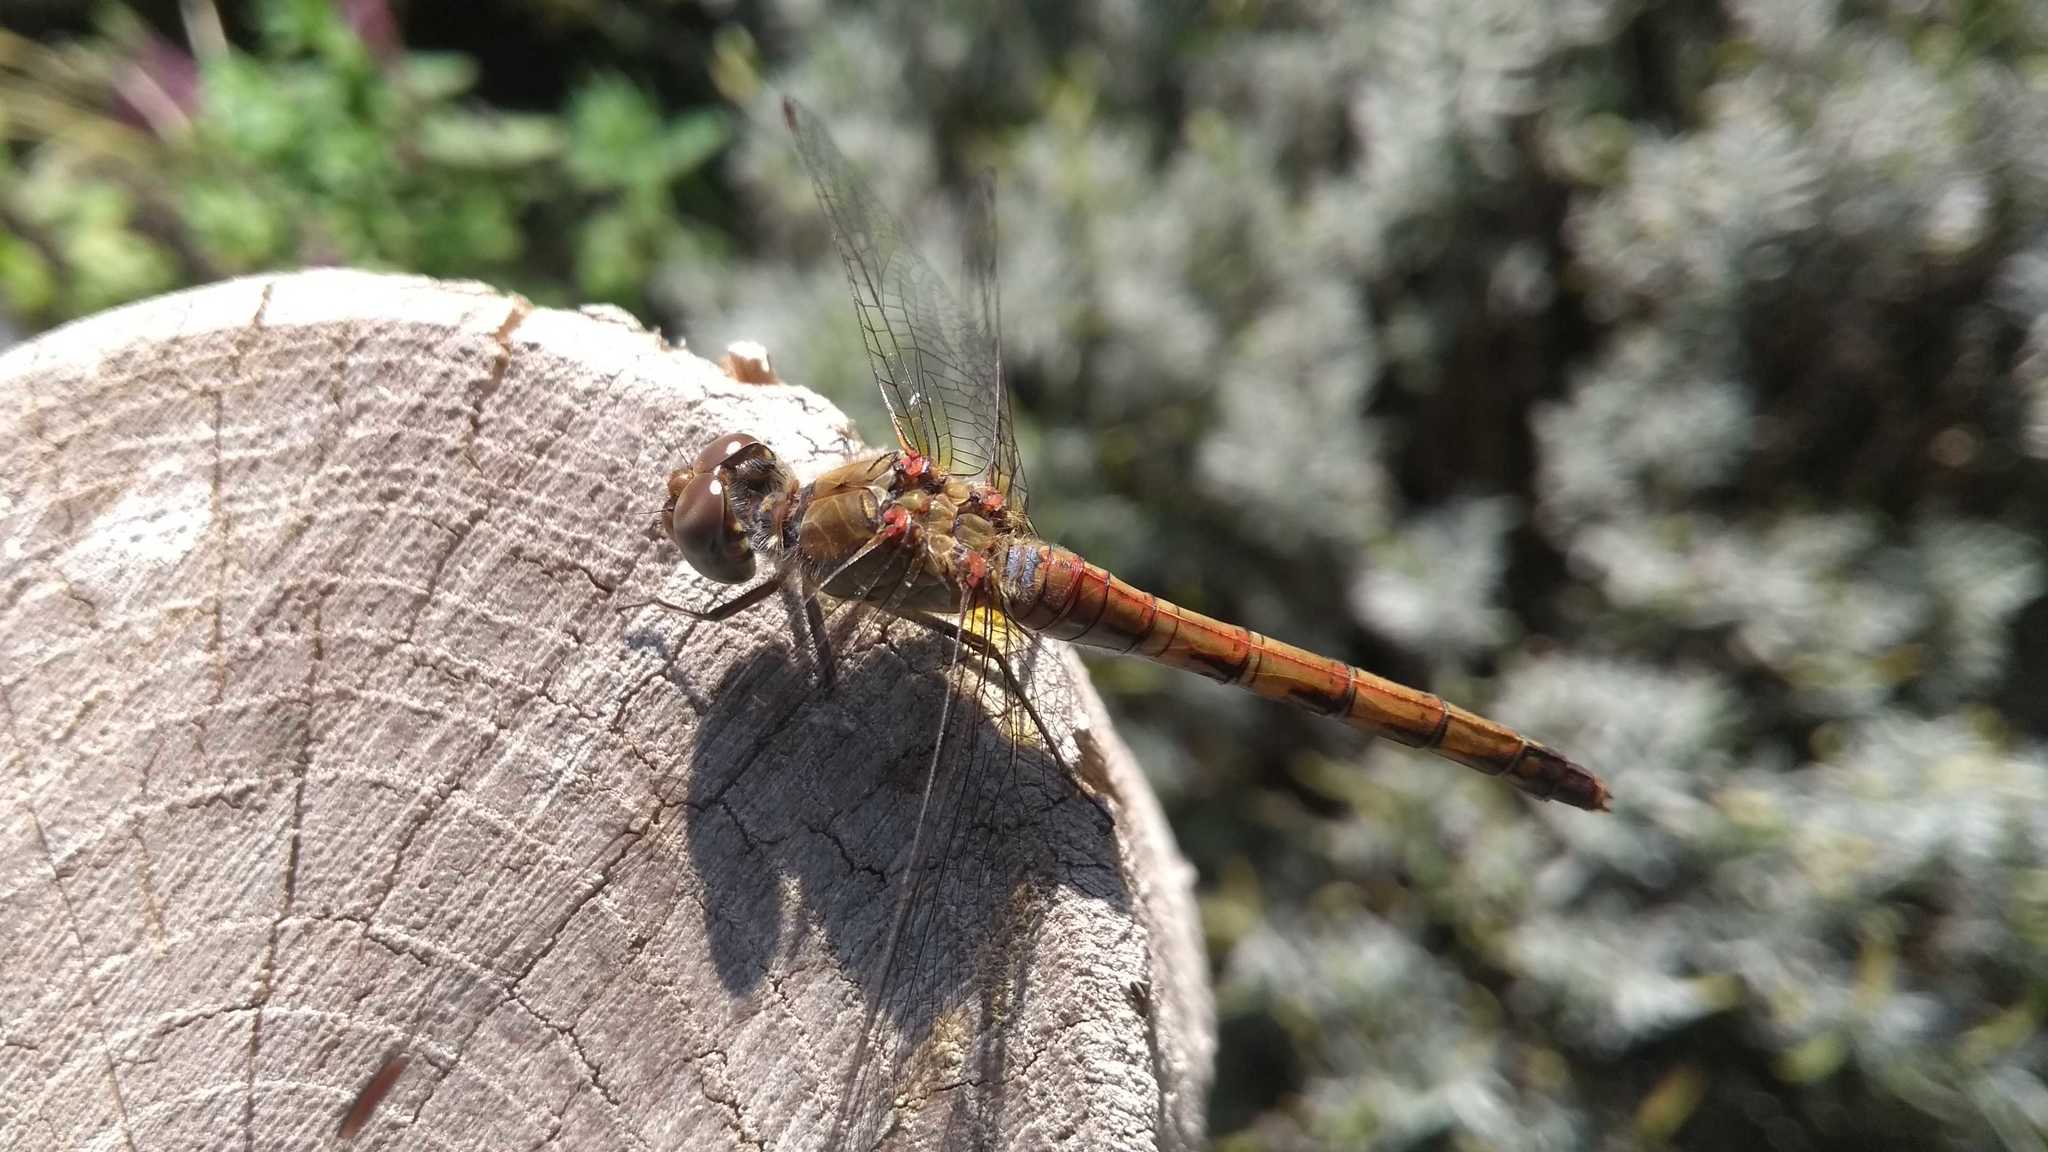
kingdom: Animalia
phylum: Arthropoda
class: Insecta
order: Odonata
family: Libellulidae
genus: Sympetrum
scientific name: Sympetrum striolatum
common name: Common darter
